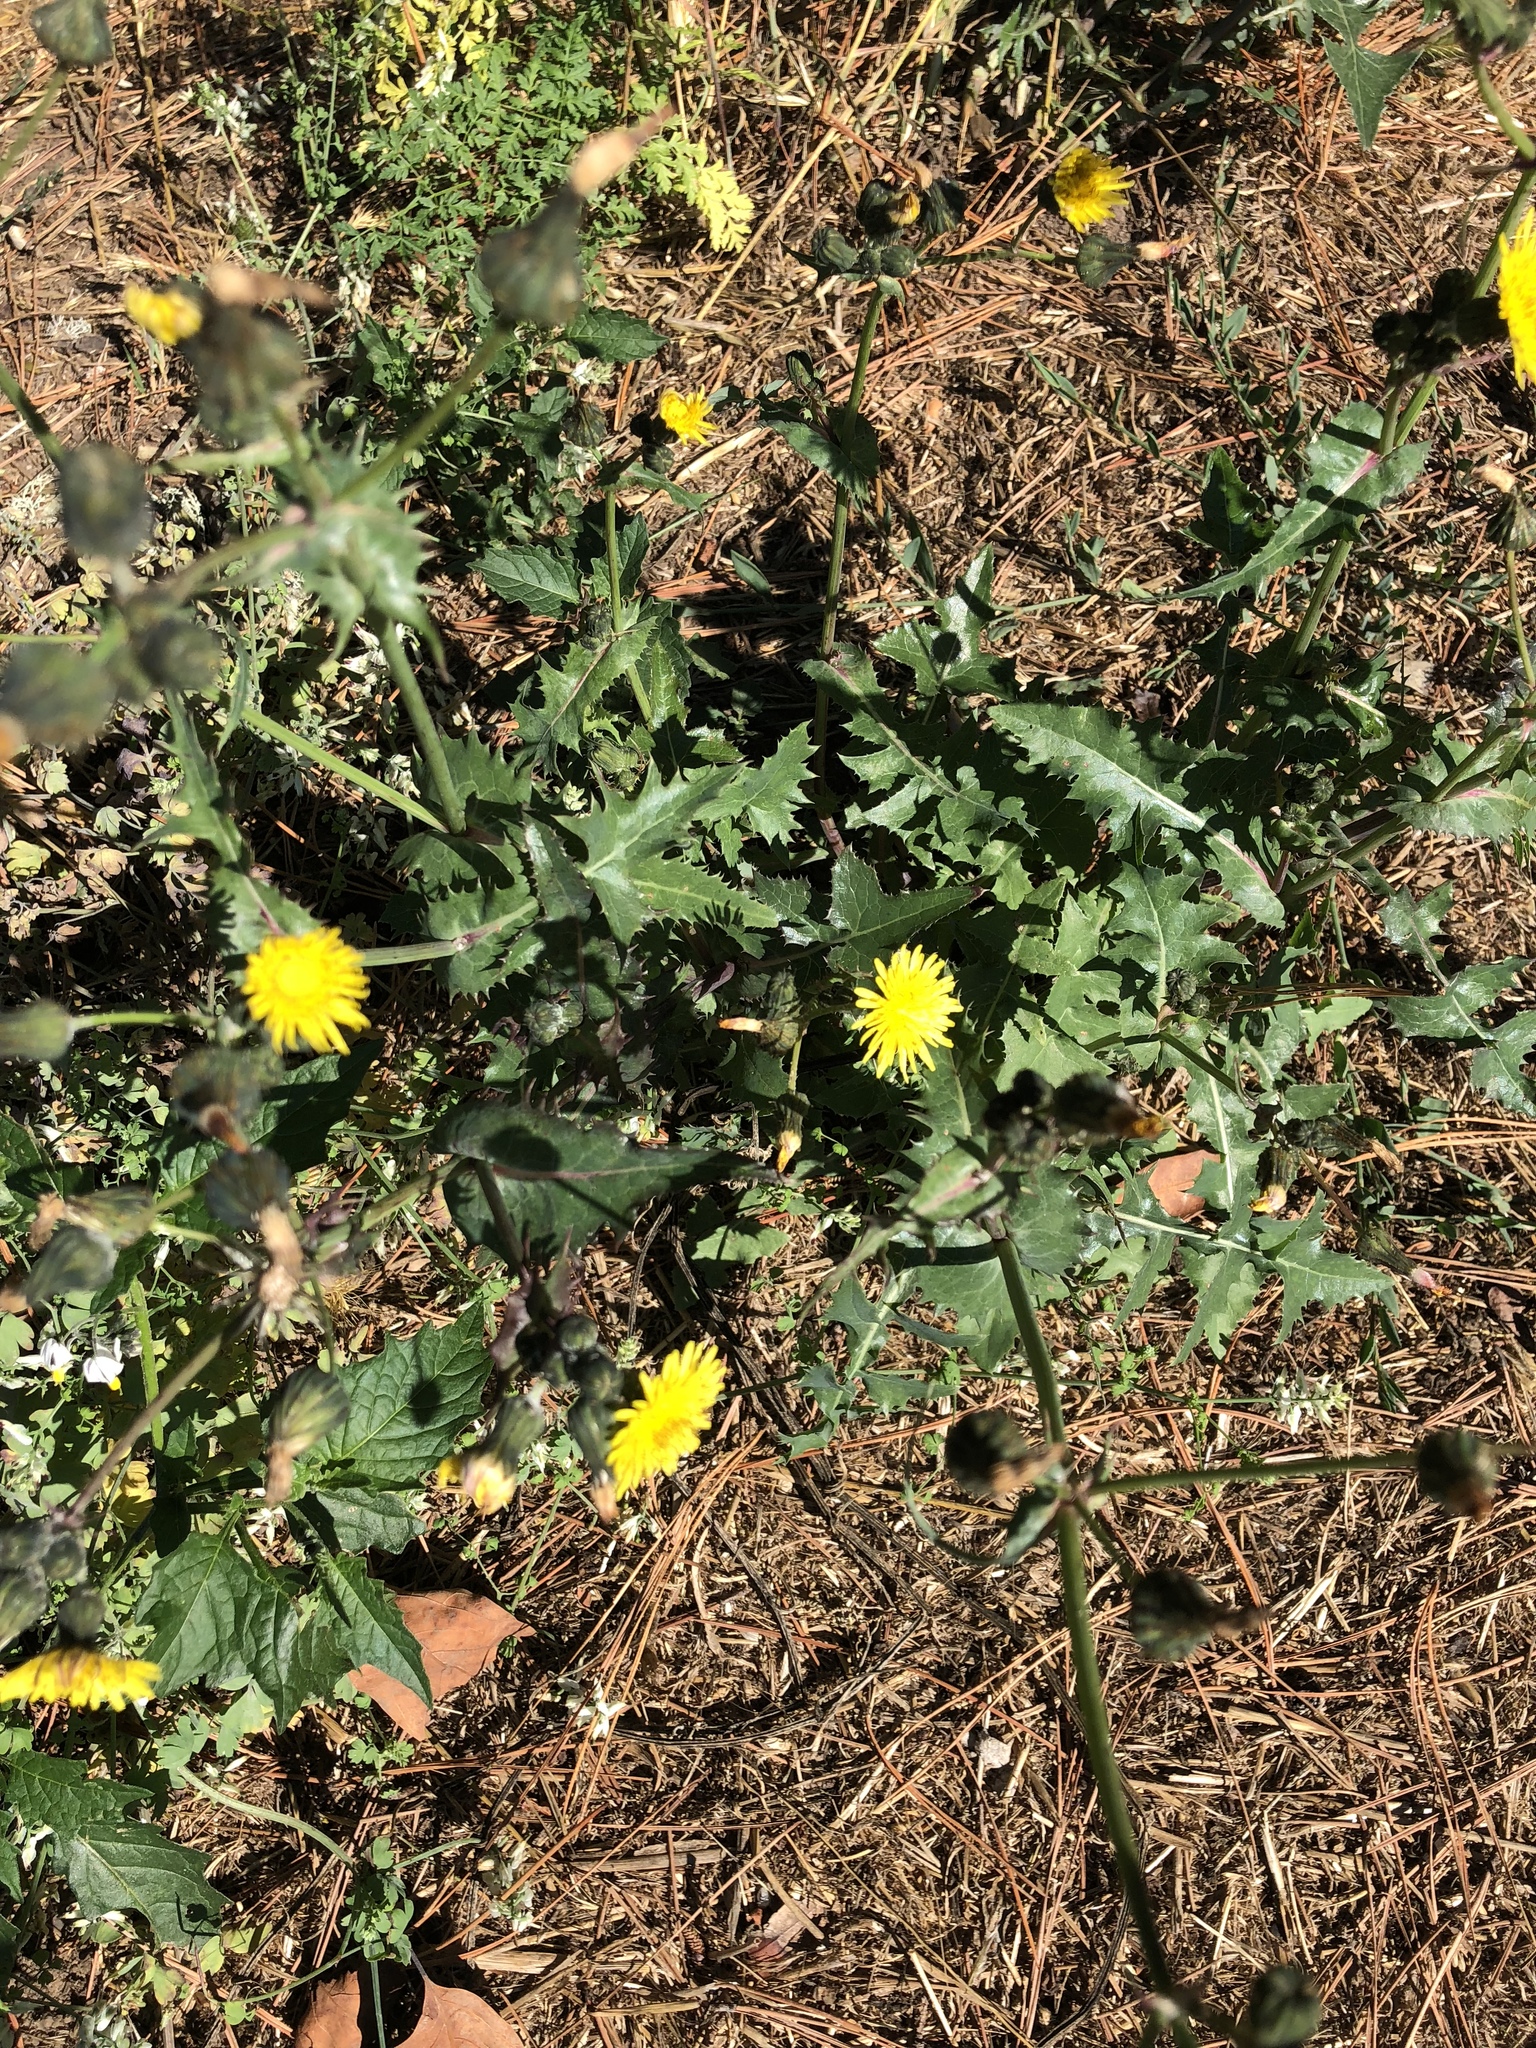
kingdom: Plantae
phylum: Tracheophyta
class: Magnoliopsida
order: Asterales
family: Asteraceae
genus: Sonchus
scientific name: Sonchus oleraceus
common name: Common sowthistle
